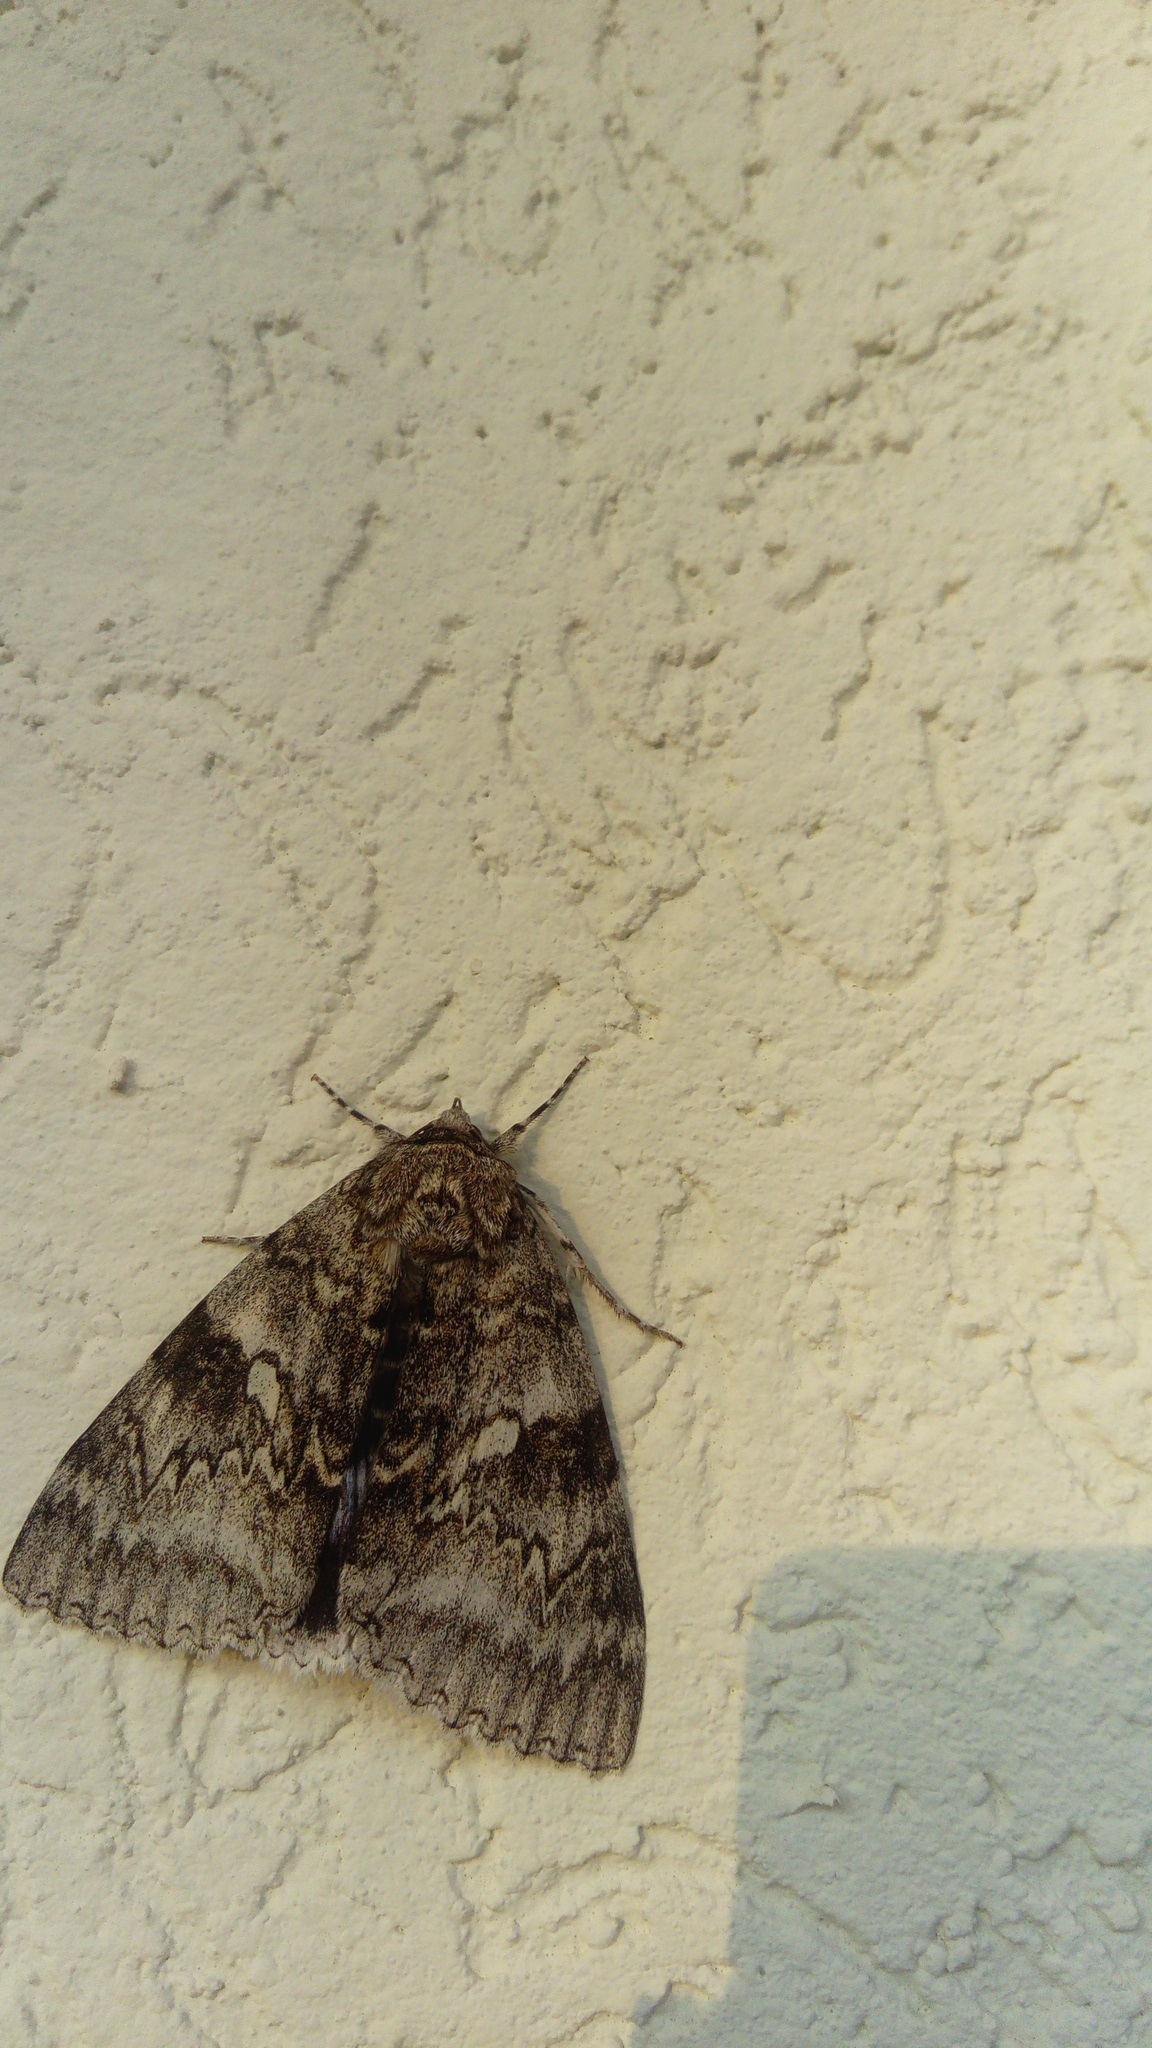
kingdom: Animalia
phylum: Arthropoda
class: Insecta
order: Lepidoptera
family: Erebidae
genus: Catocala
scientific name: Catocala fraxini
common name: Clifden nonpareil
